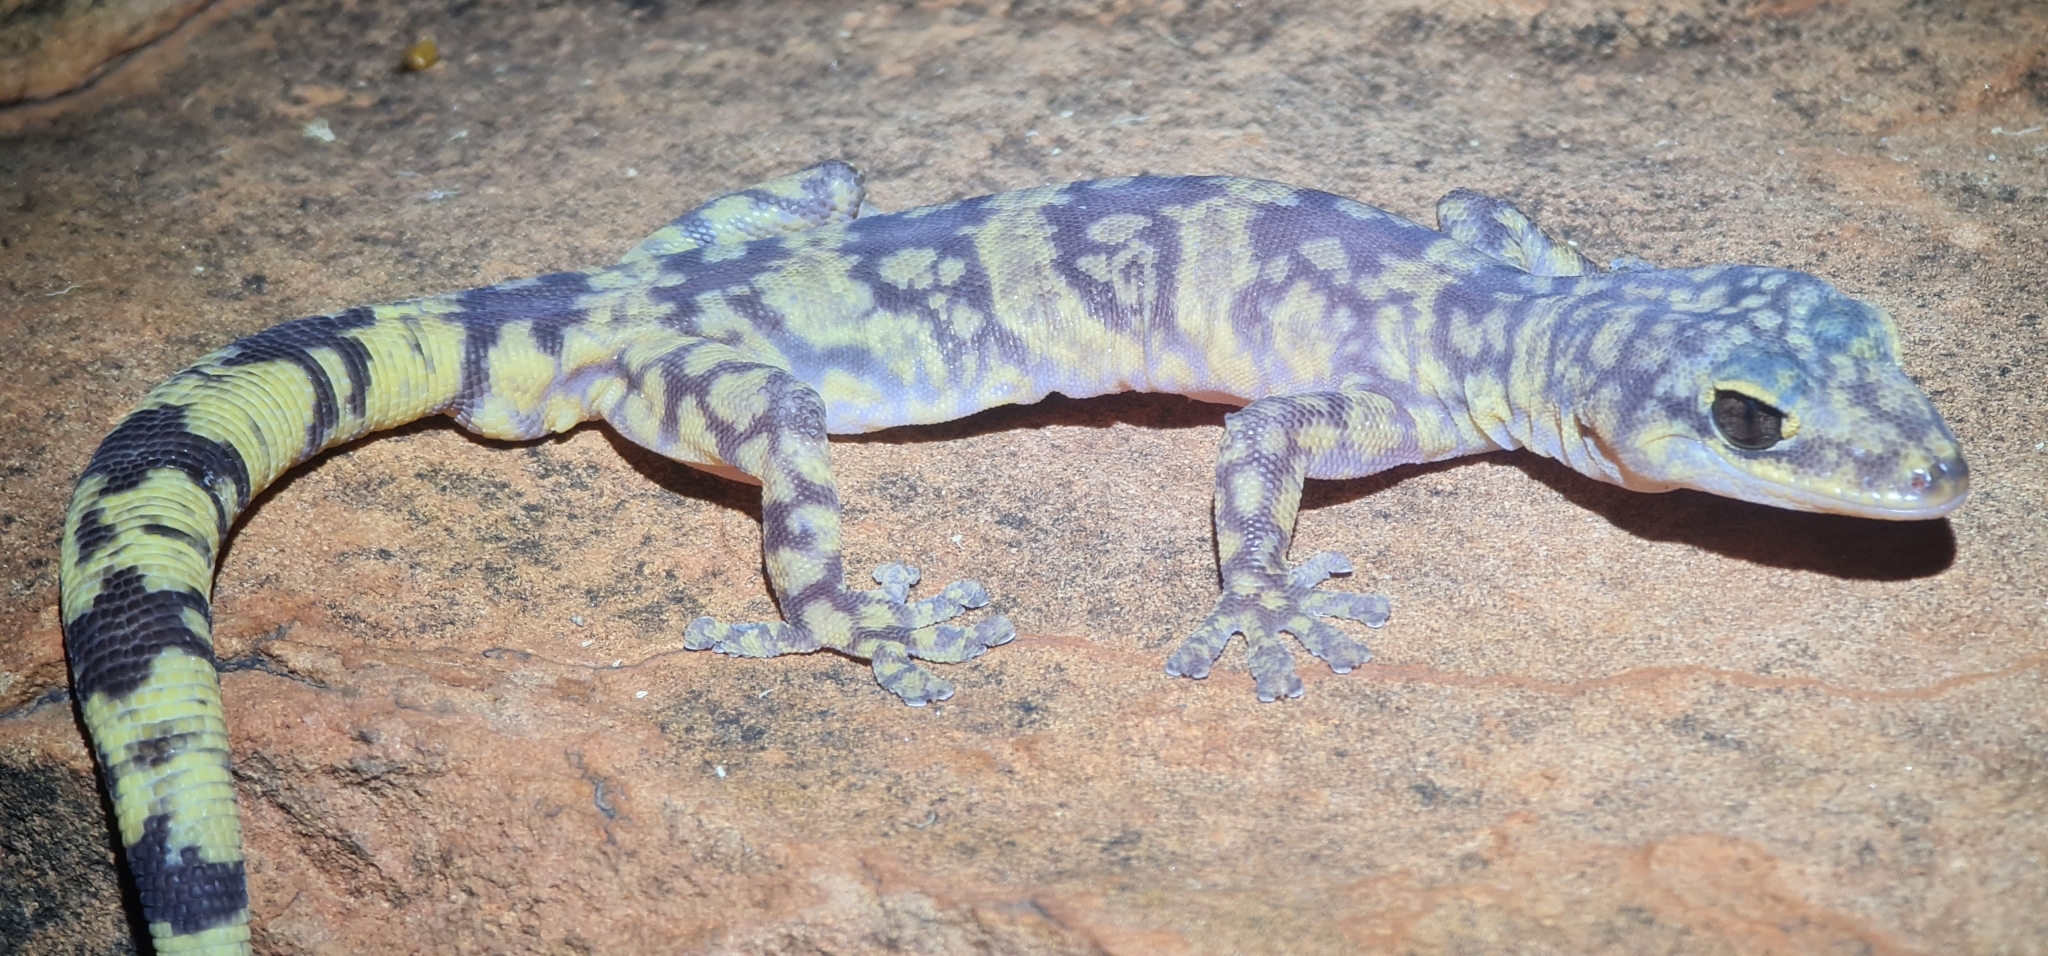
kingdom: Animalia
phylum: Chordata
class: Squamata
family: Diplodactylidae
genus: Oedura
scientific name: Oedura luritja
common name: Mereenie velvet gecko
